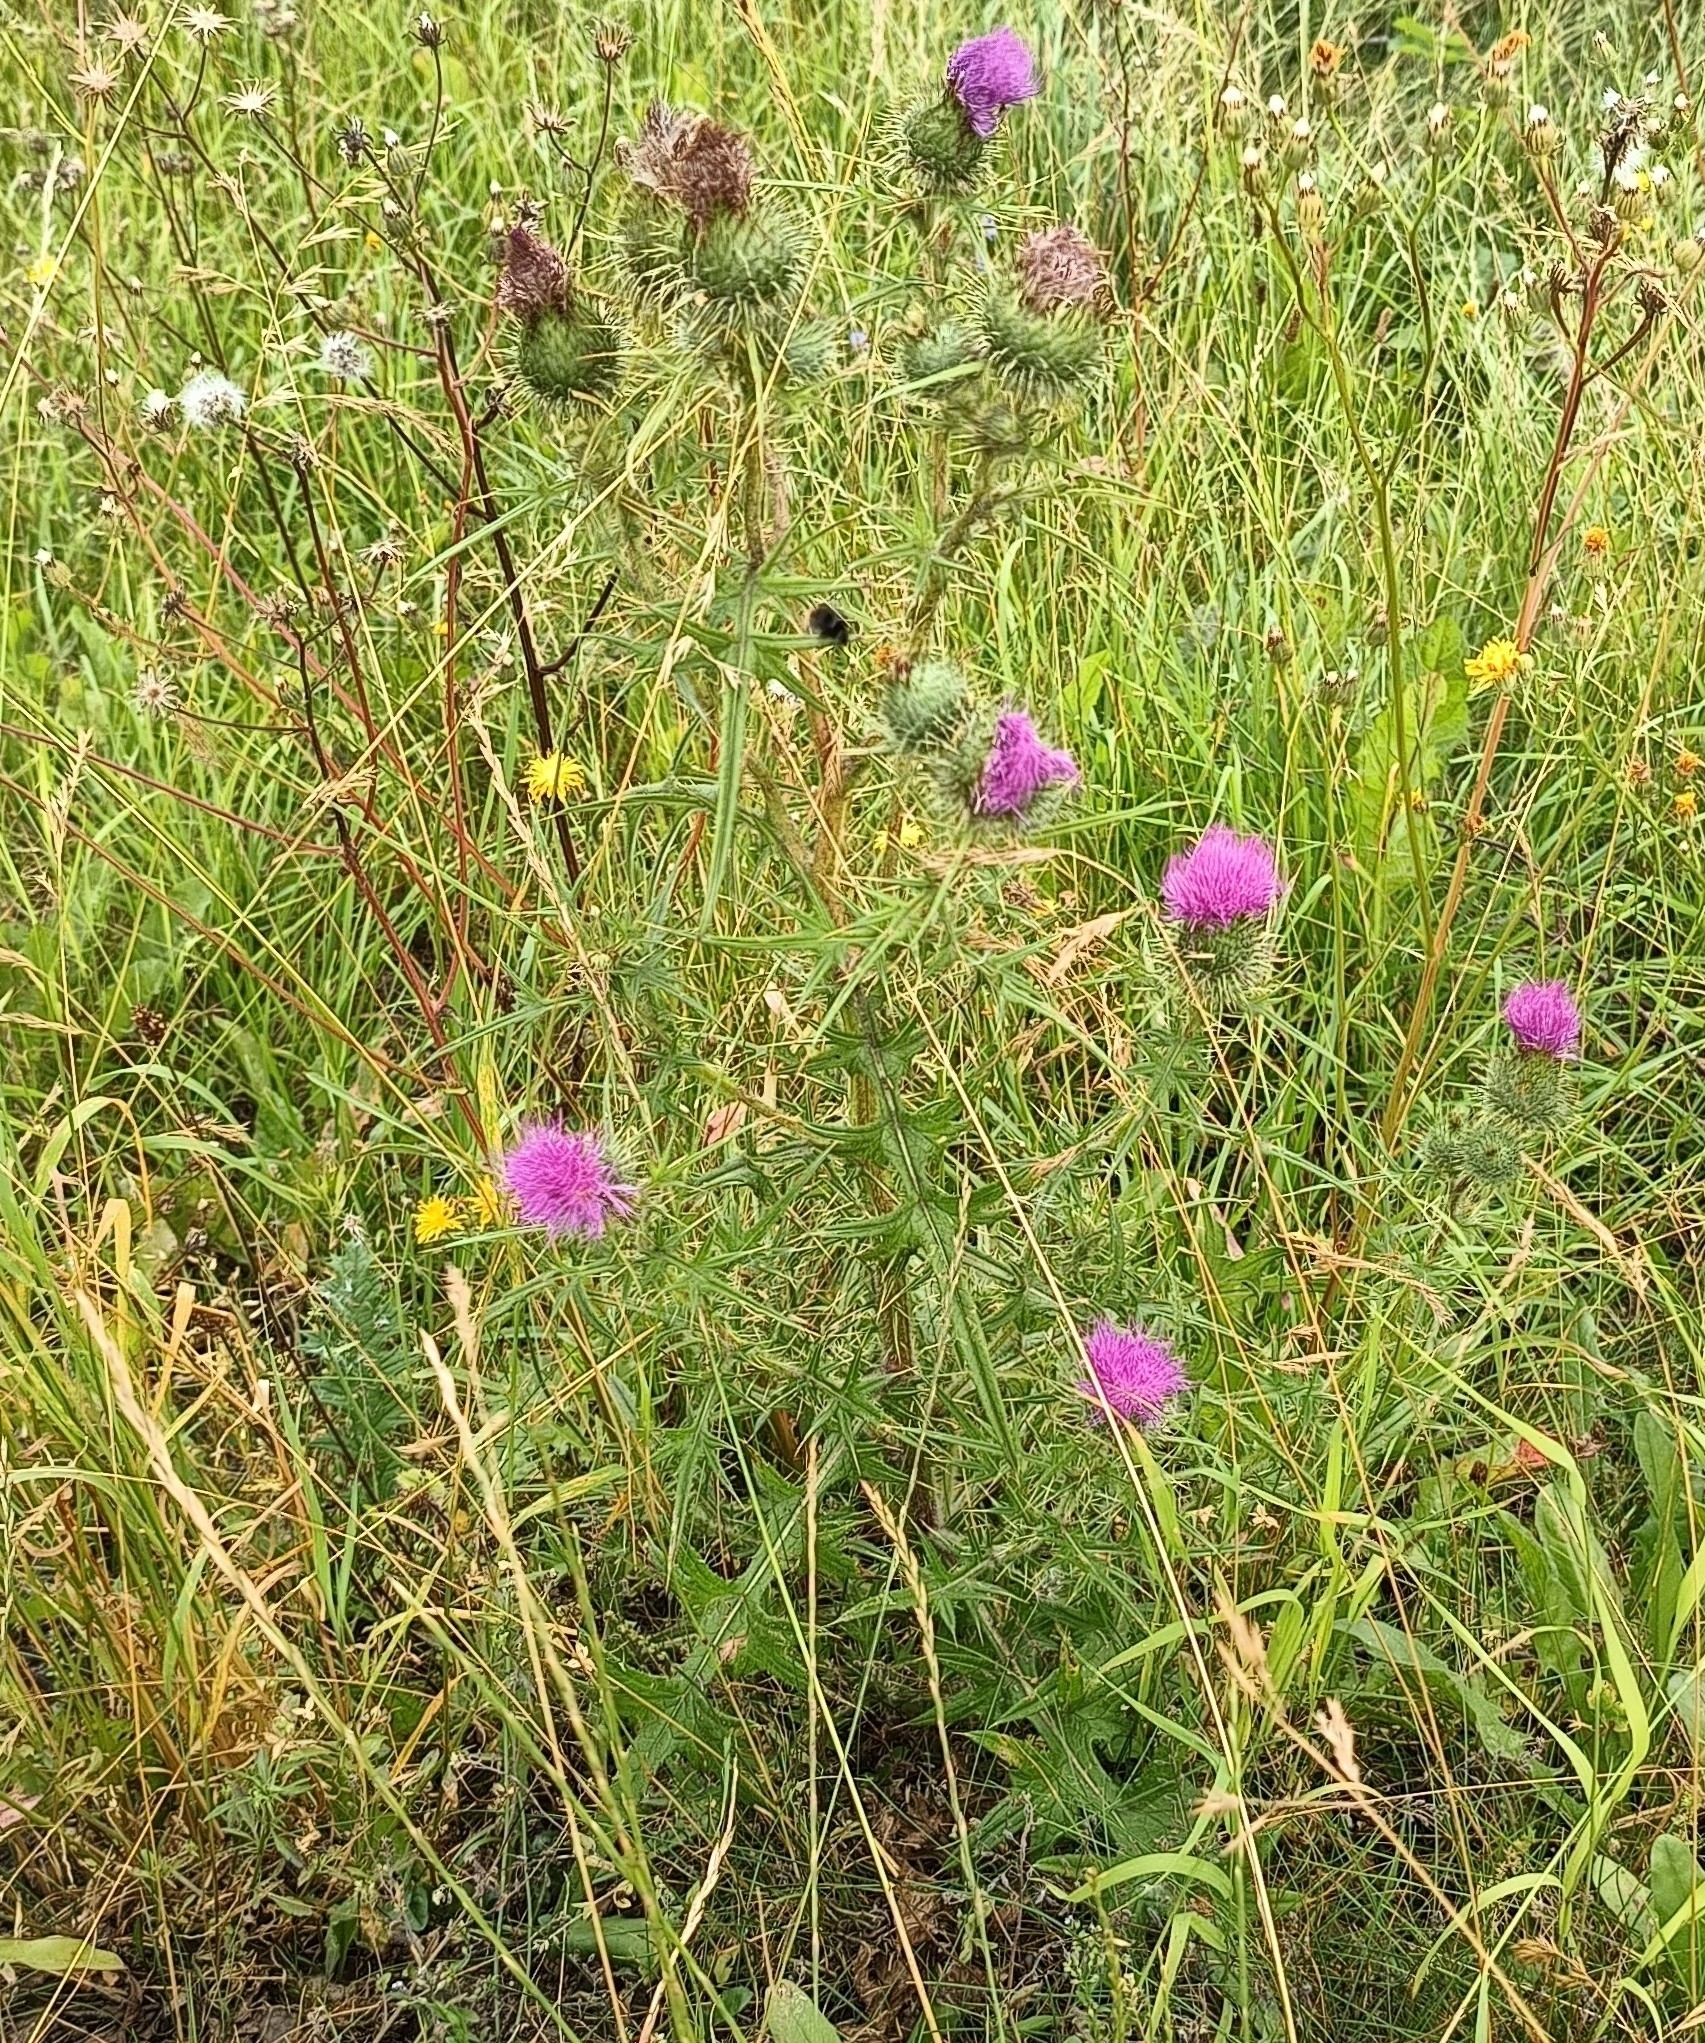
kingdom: Plantae
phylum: Tracheophyta
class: Magnoliopsida
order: Asterales
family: Asteraceae
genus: Cirsium
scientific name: Cirsium vulgare
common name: Bull thistle
